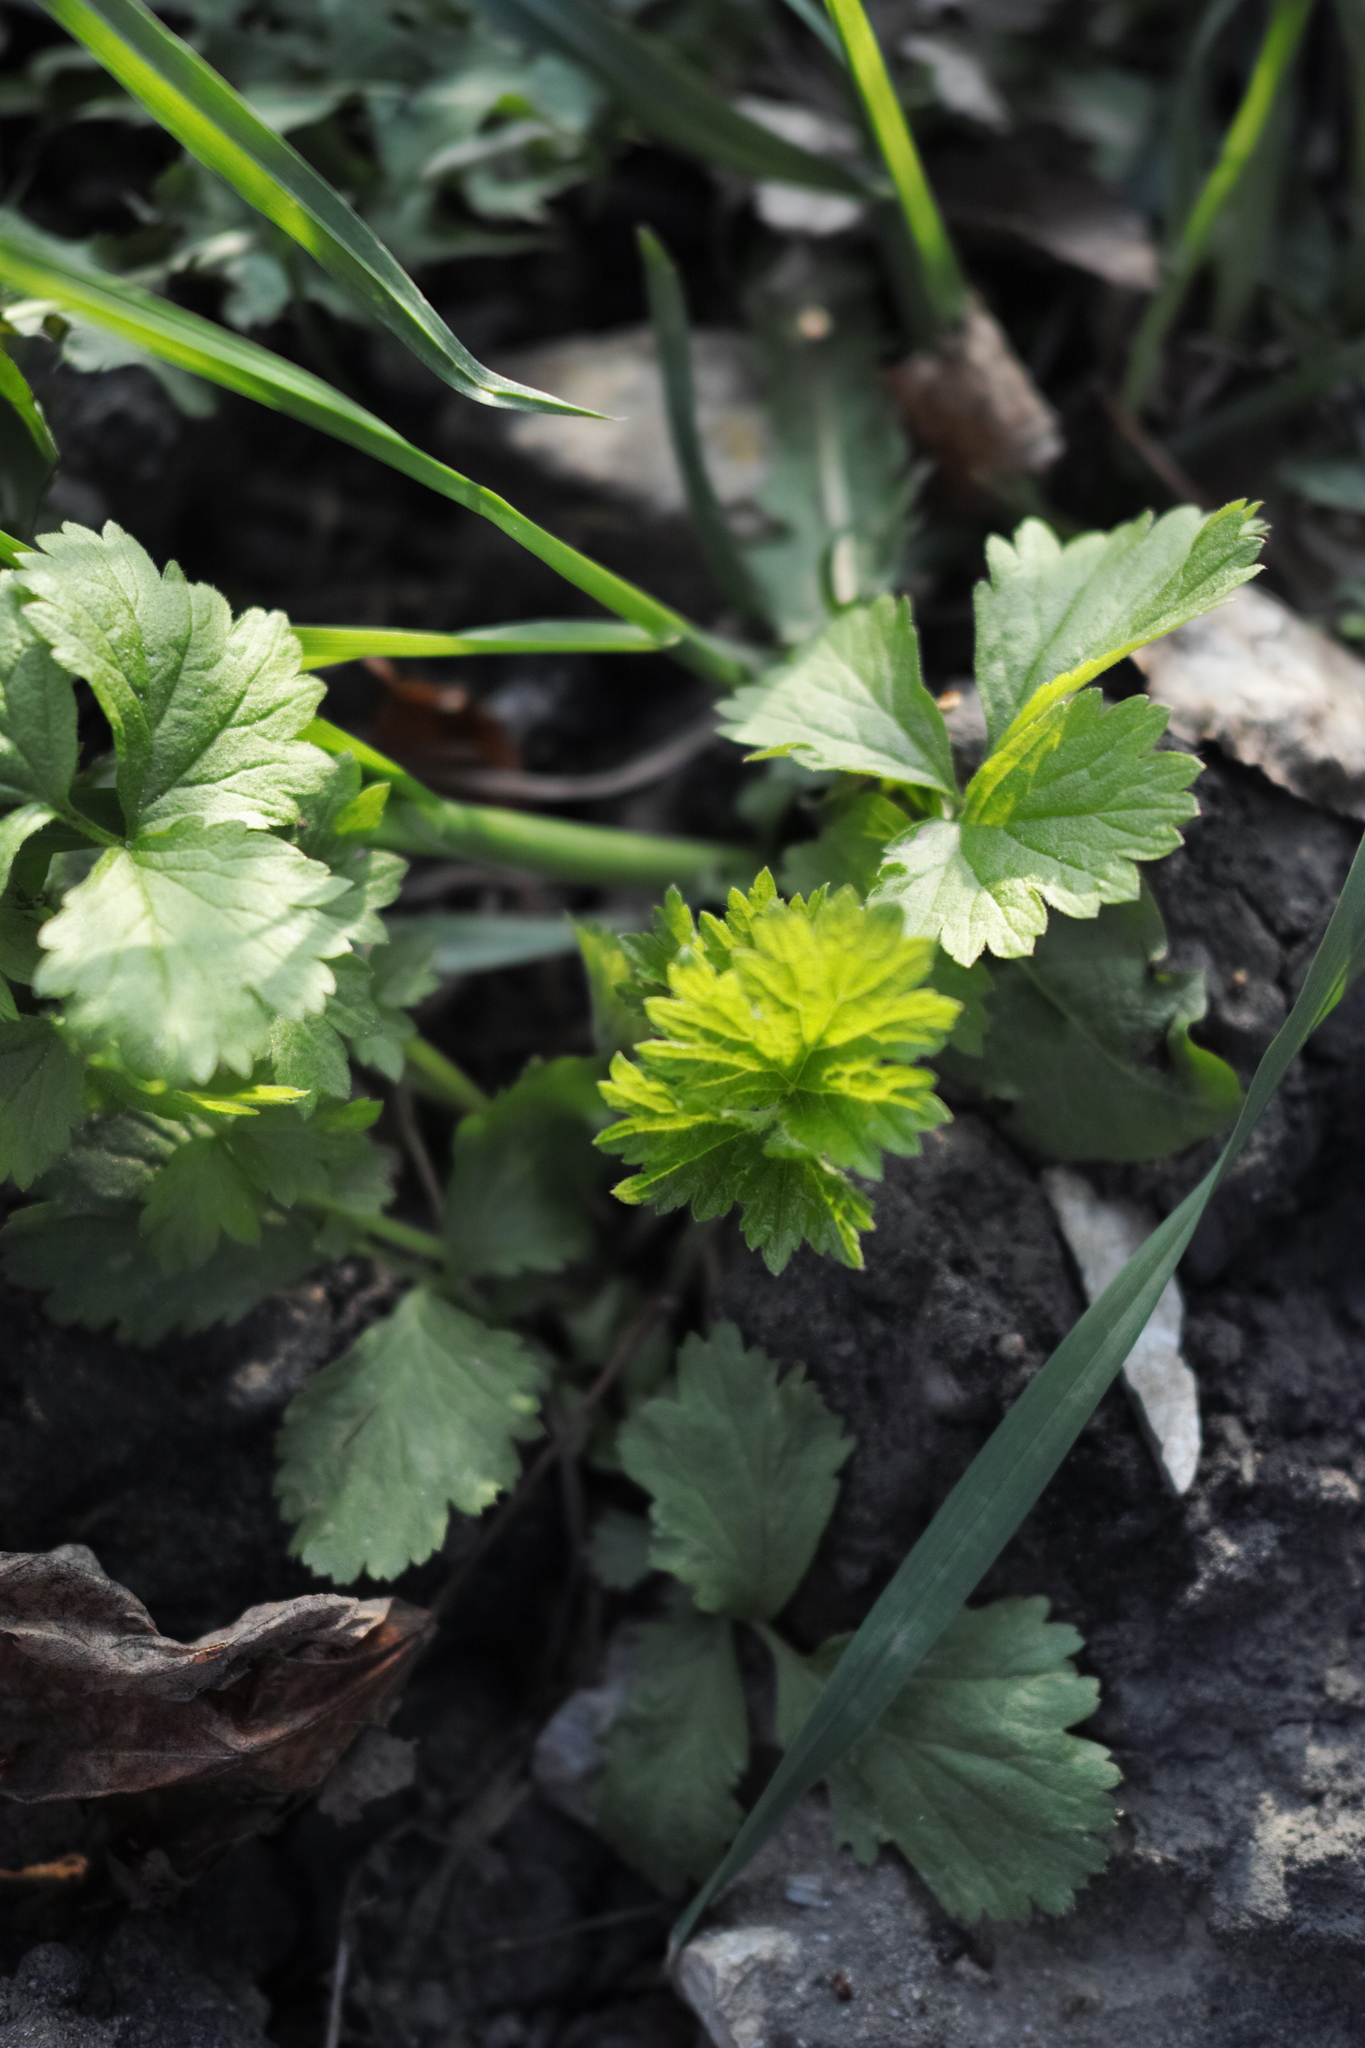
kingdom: Plantae
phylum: Tracheophyta
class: Magnoliopsida
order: Rosales
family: Rosaceae
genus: Geum
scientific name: Geum
